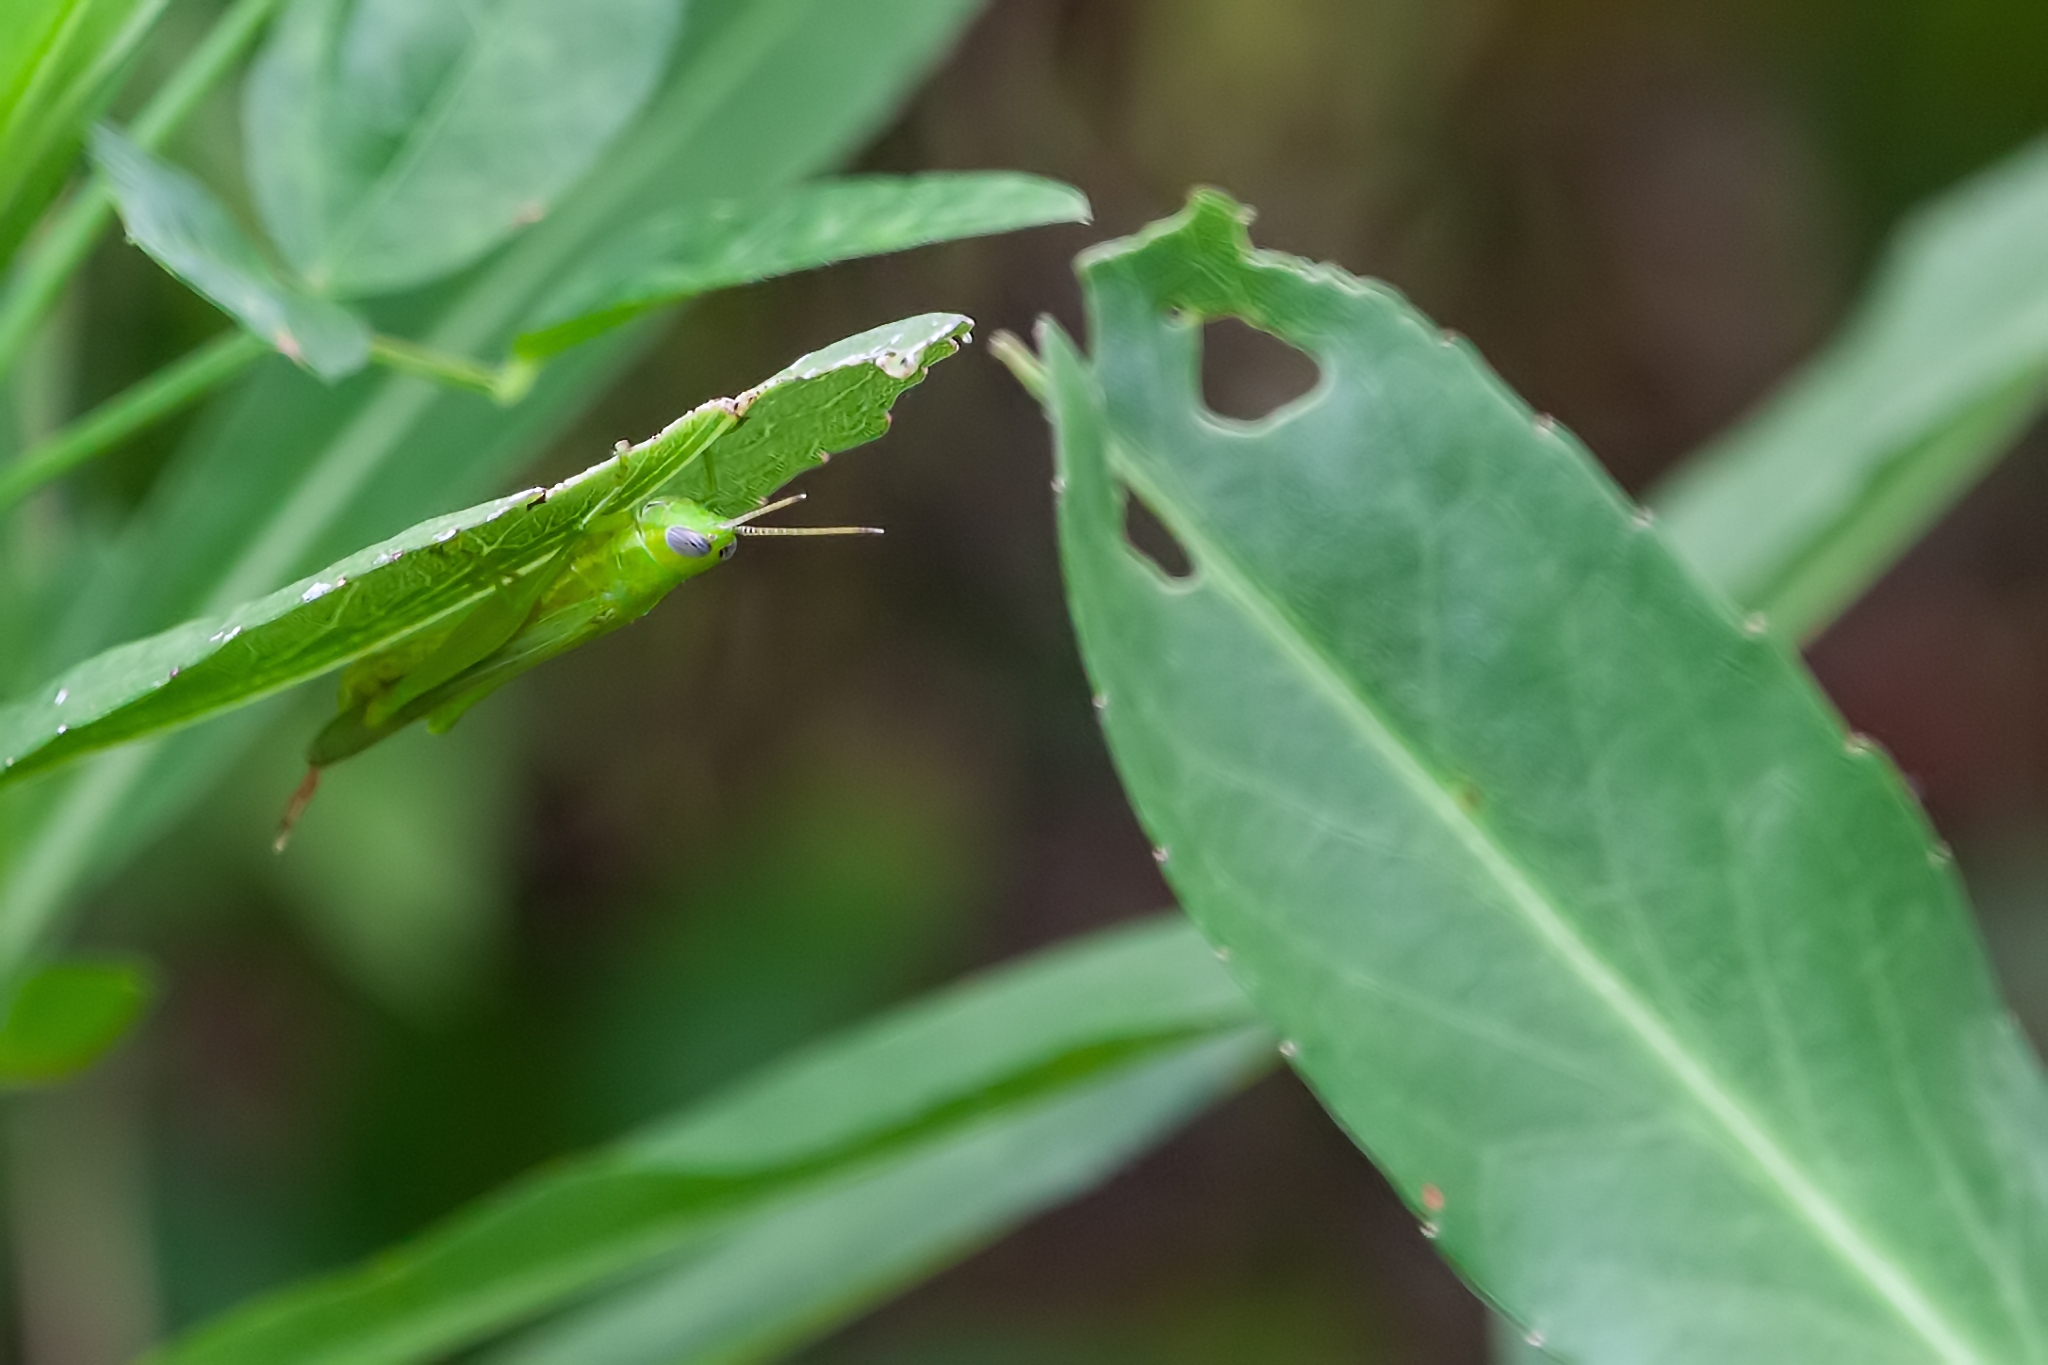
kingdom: Animalia
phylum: Arthropoda
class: Insecta
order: Orthoptera
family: Acrididae
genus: Stenacris
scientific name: Stenacris vitreipennis
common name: Glassy-winged toothpick grasshopper
